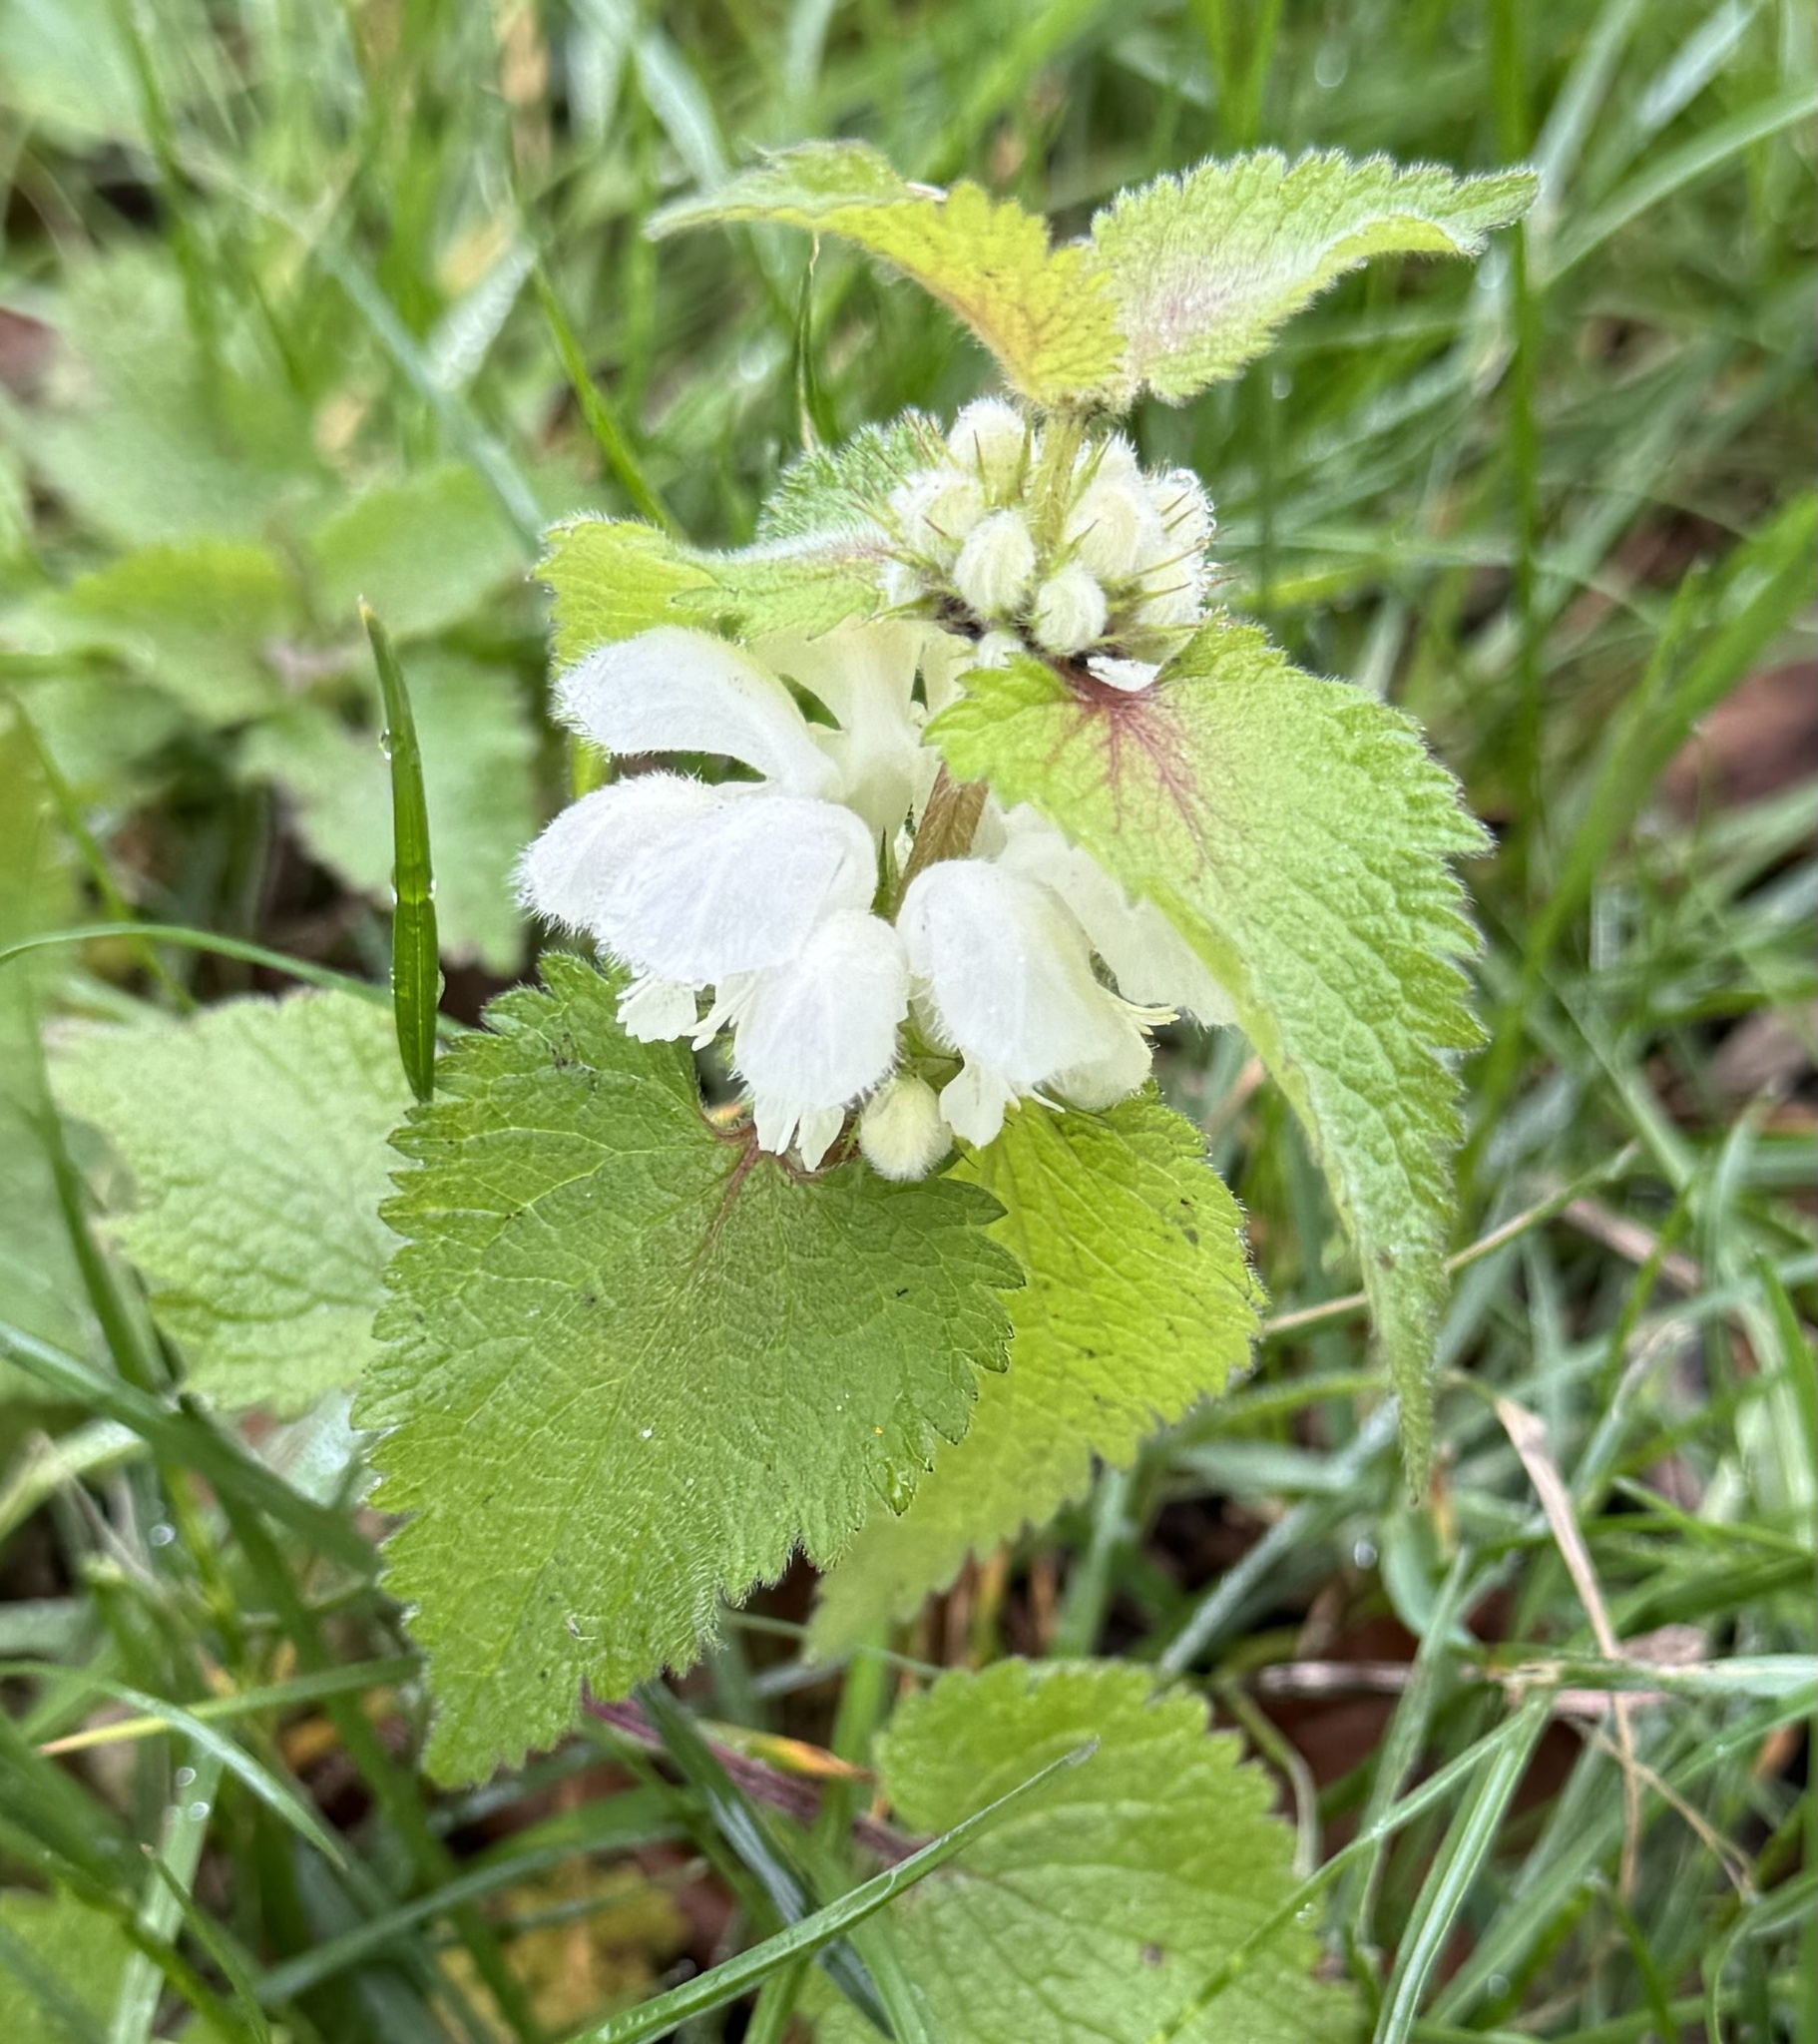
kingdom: Plantae
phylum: Tracheophyta
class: Magnoliopsida
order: Lamiales
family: Lamiaceae
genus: Lamium
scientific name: Lamium album
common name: White dead-nettle
